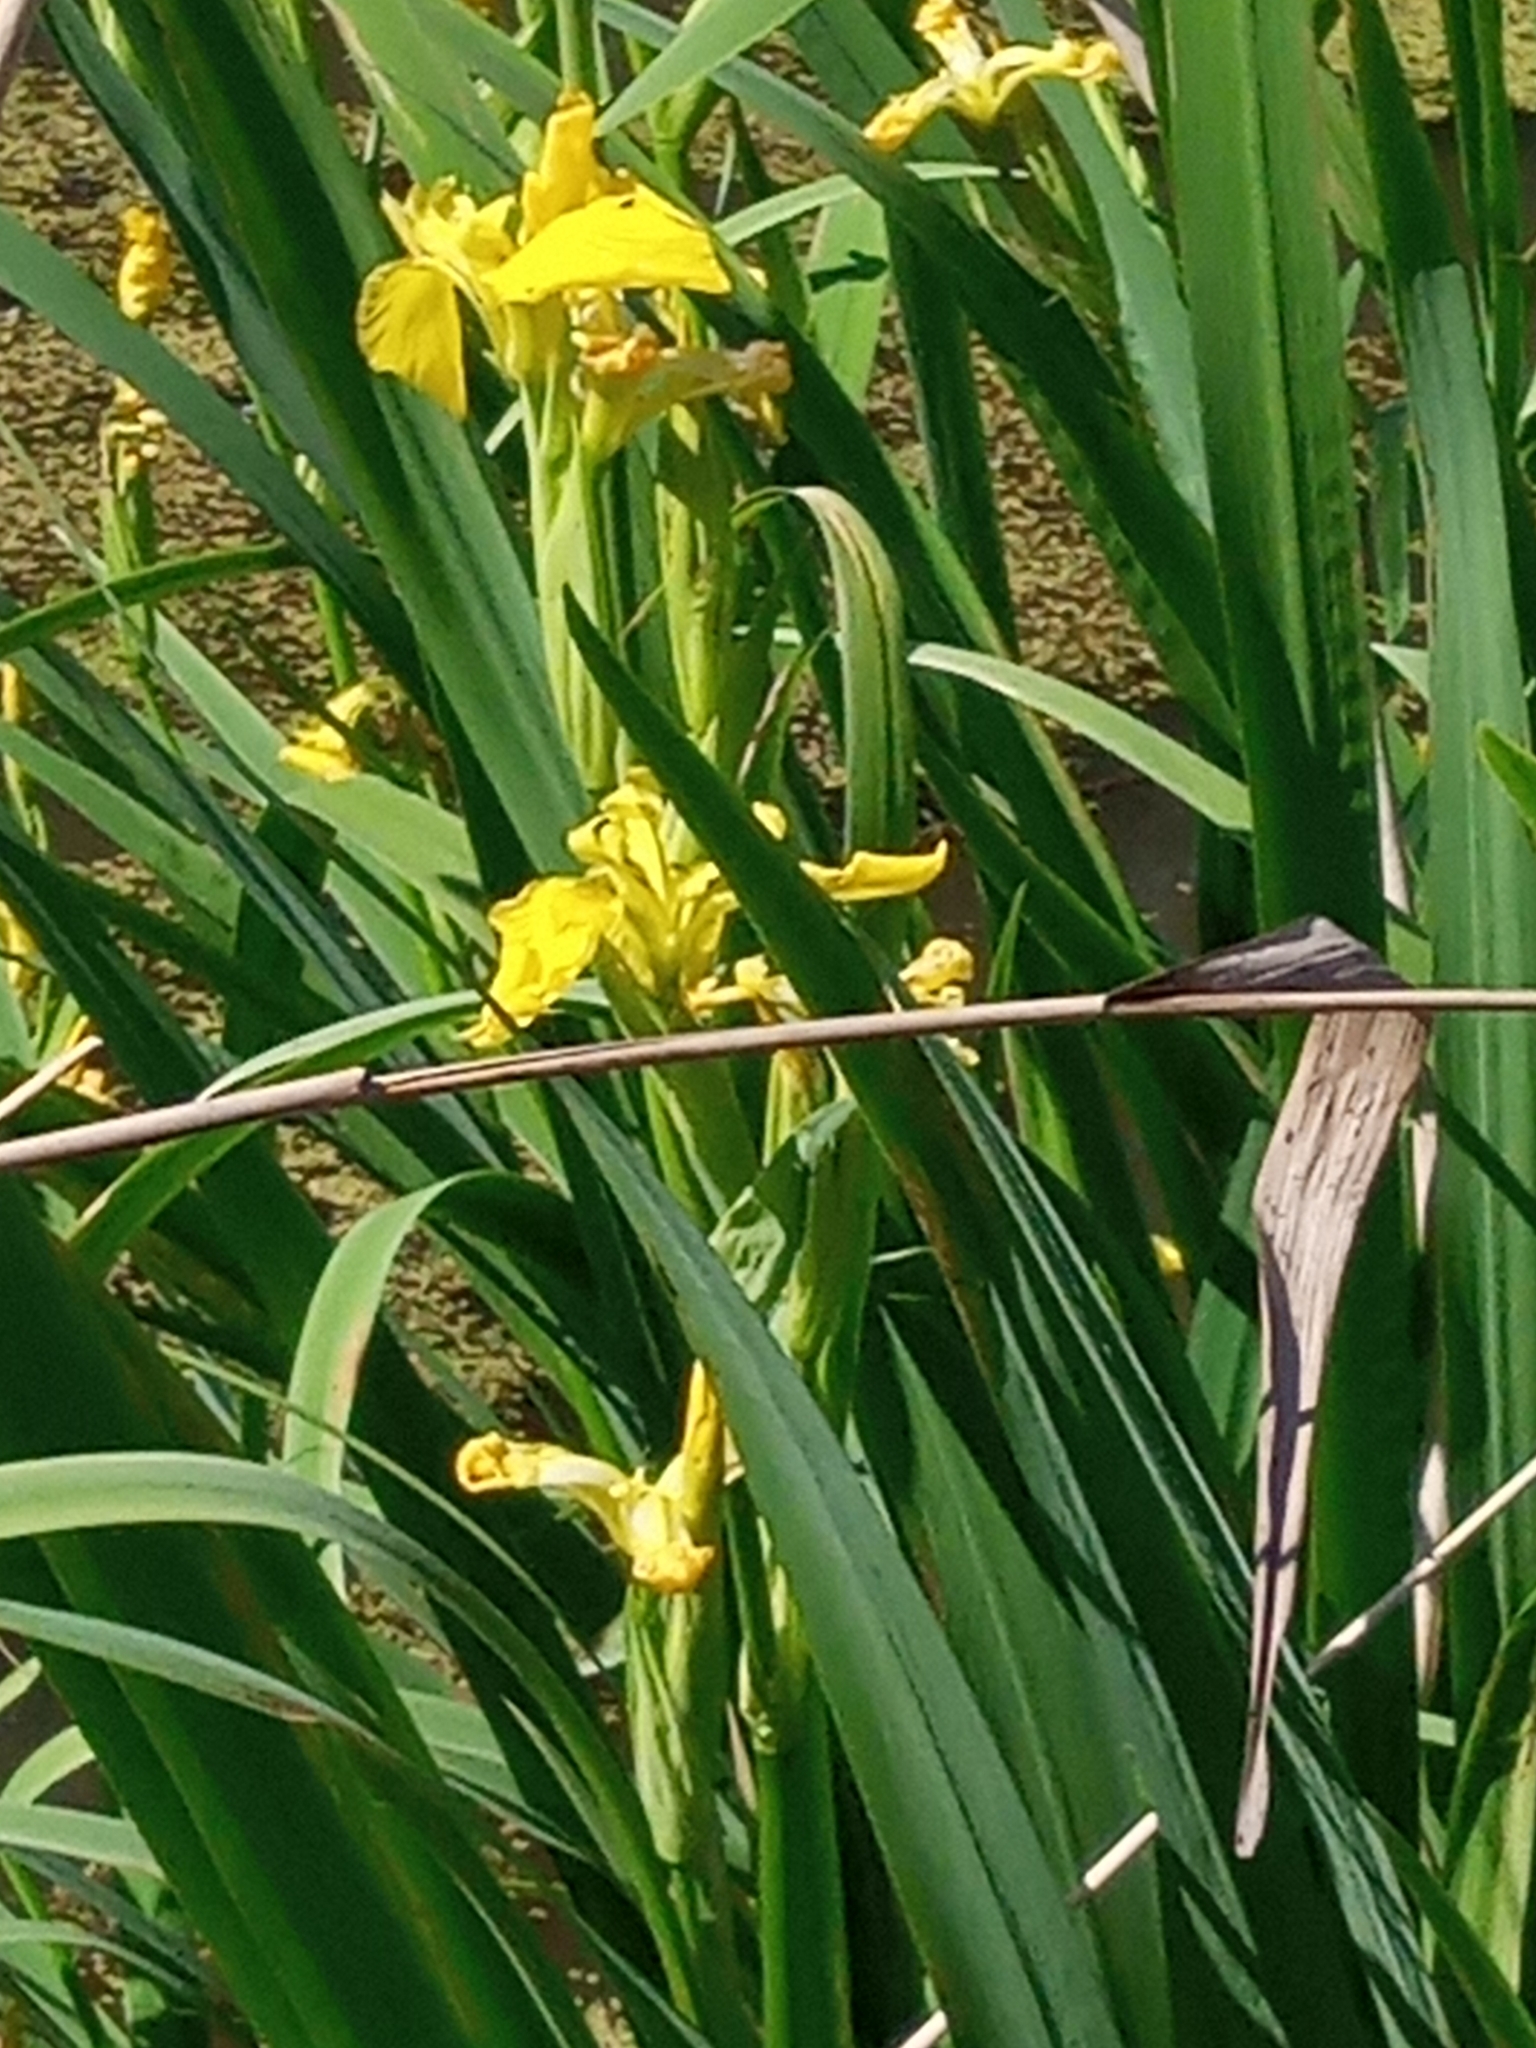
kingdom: Plantae
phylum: Tracheophyta
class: Liliopsida
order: Asparagales
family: Iridaceae
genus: Iris
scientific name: Iris pseudacorus
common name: Yellow flag
